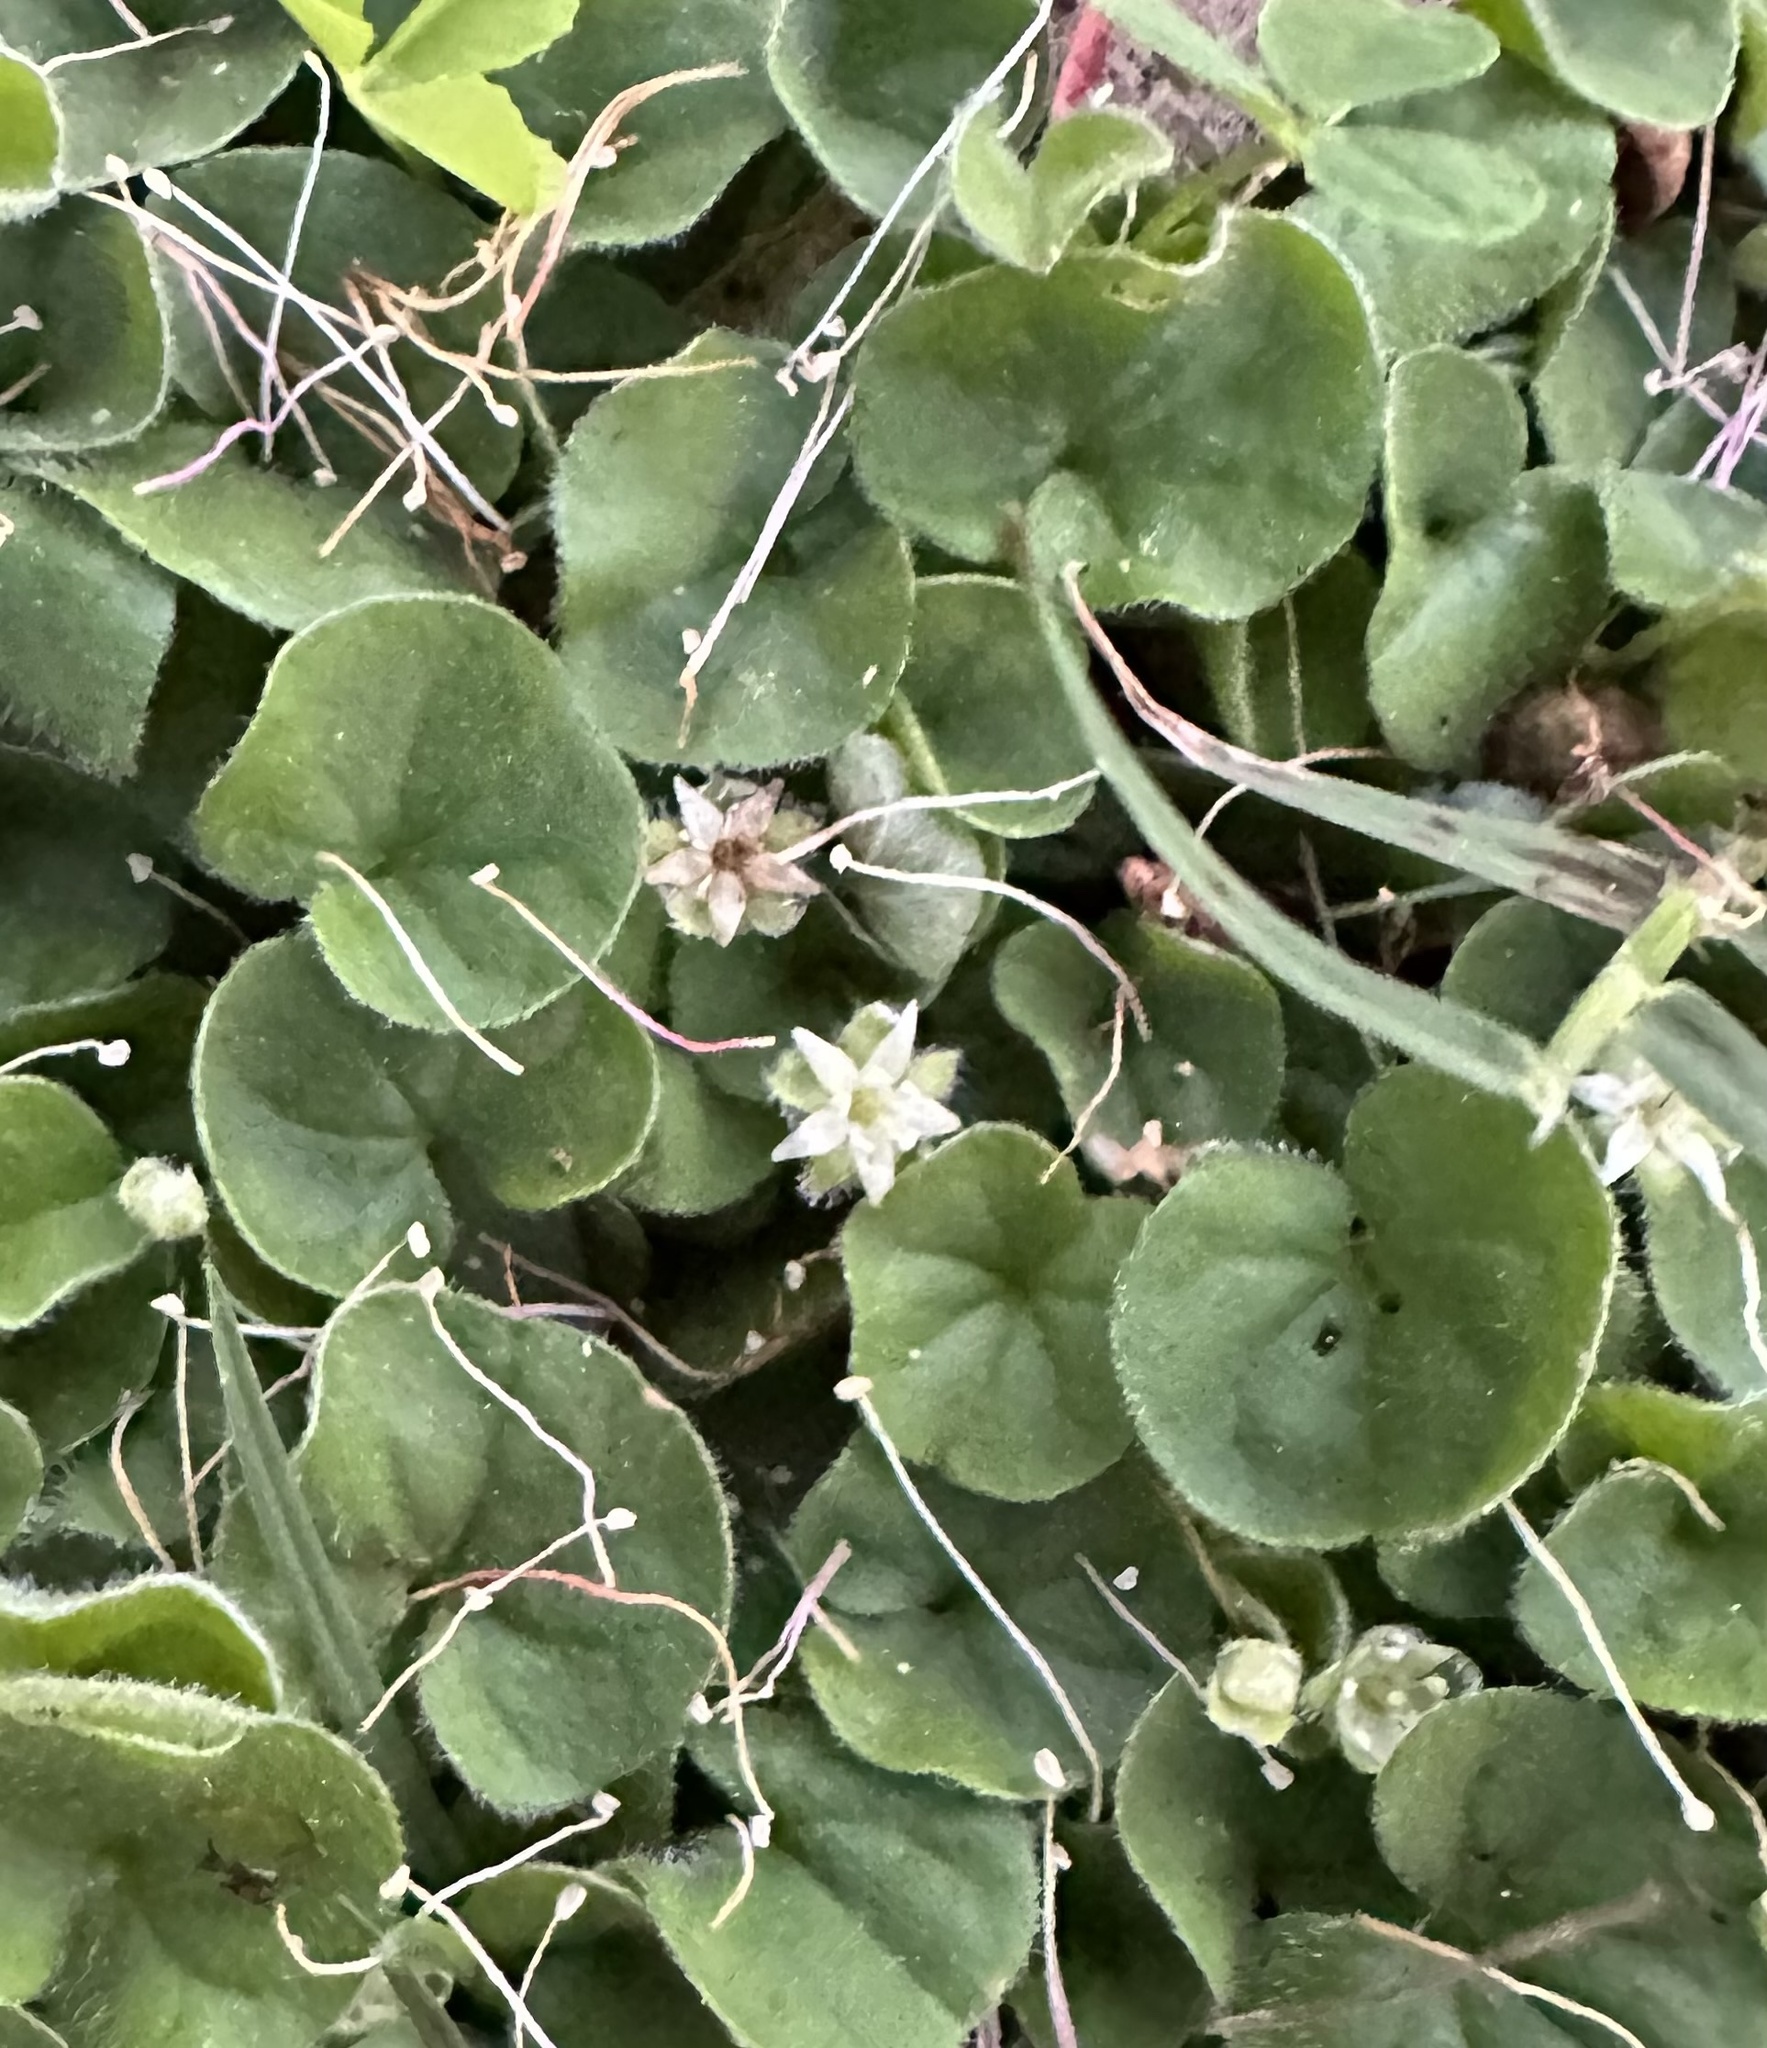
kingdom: Plantae
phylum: Tracheophyta
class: Magnoliopsida
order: Solanales
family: Convolvulaceae
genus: Dichondra
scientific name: Dichondra repens
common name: Kidneyweed
